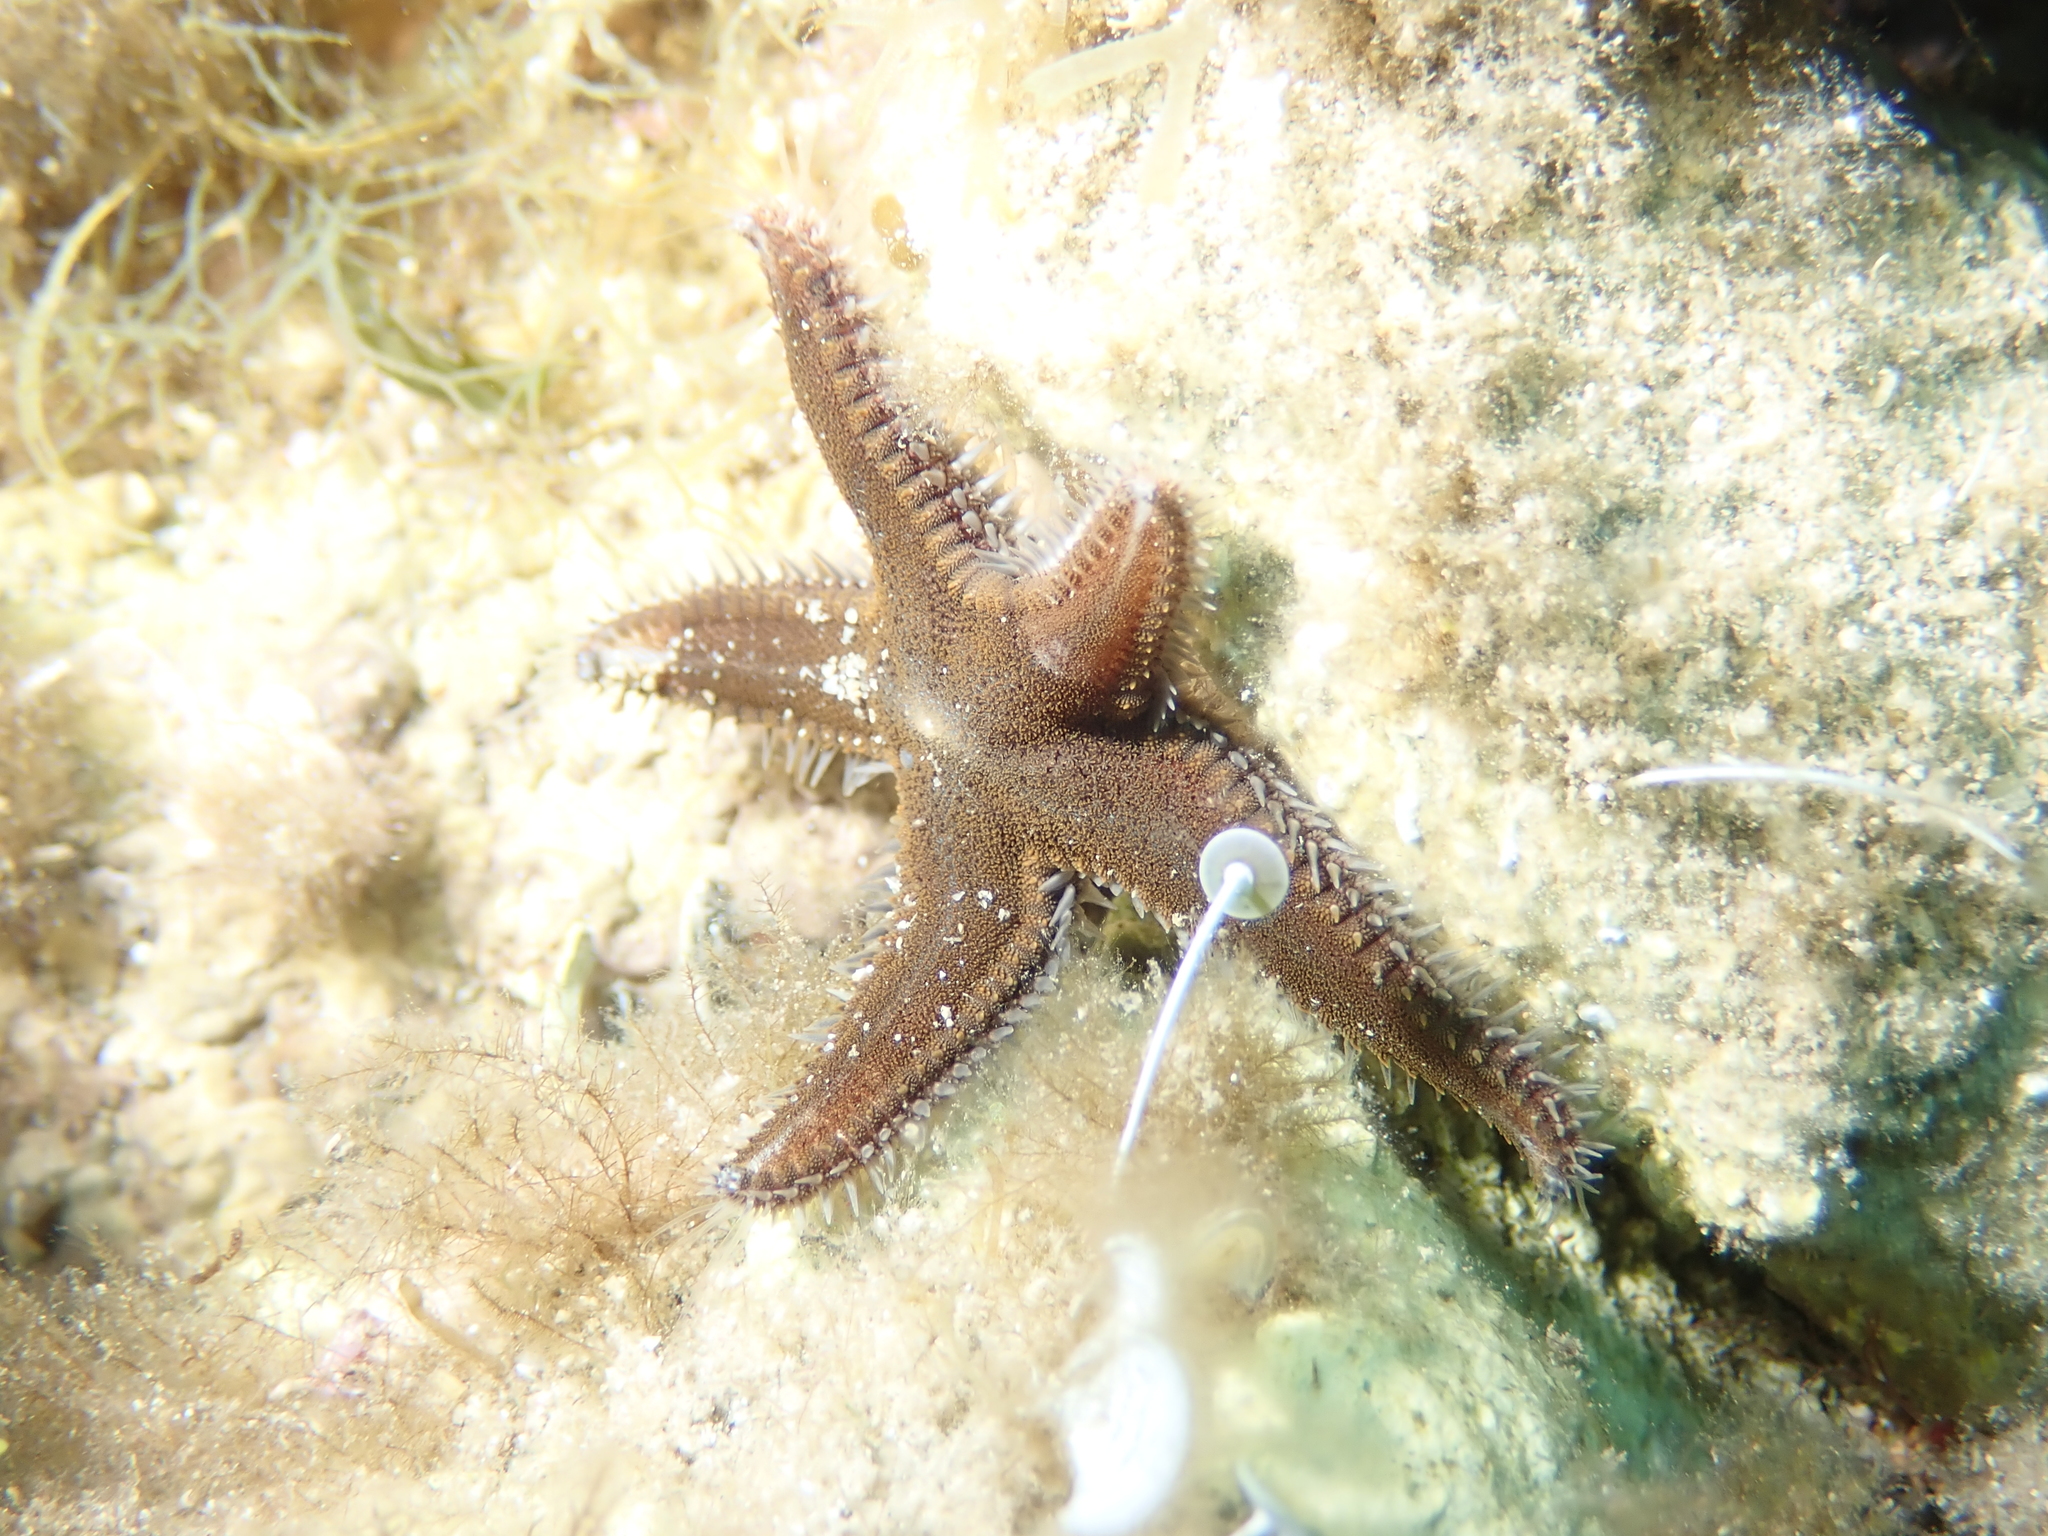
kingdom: Animalia
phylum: Echinodermata
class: Asteroidea
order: Paxillosida
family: Astropectinidae
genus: Astropecten
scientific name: Astropecten spinulosus
